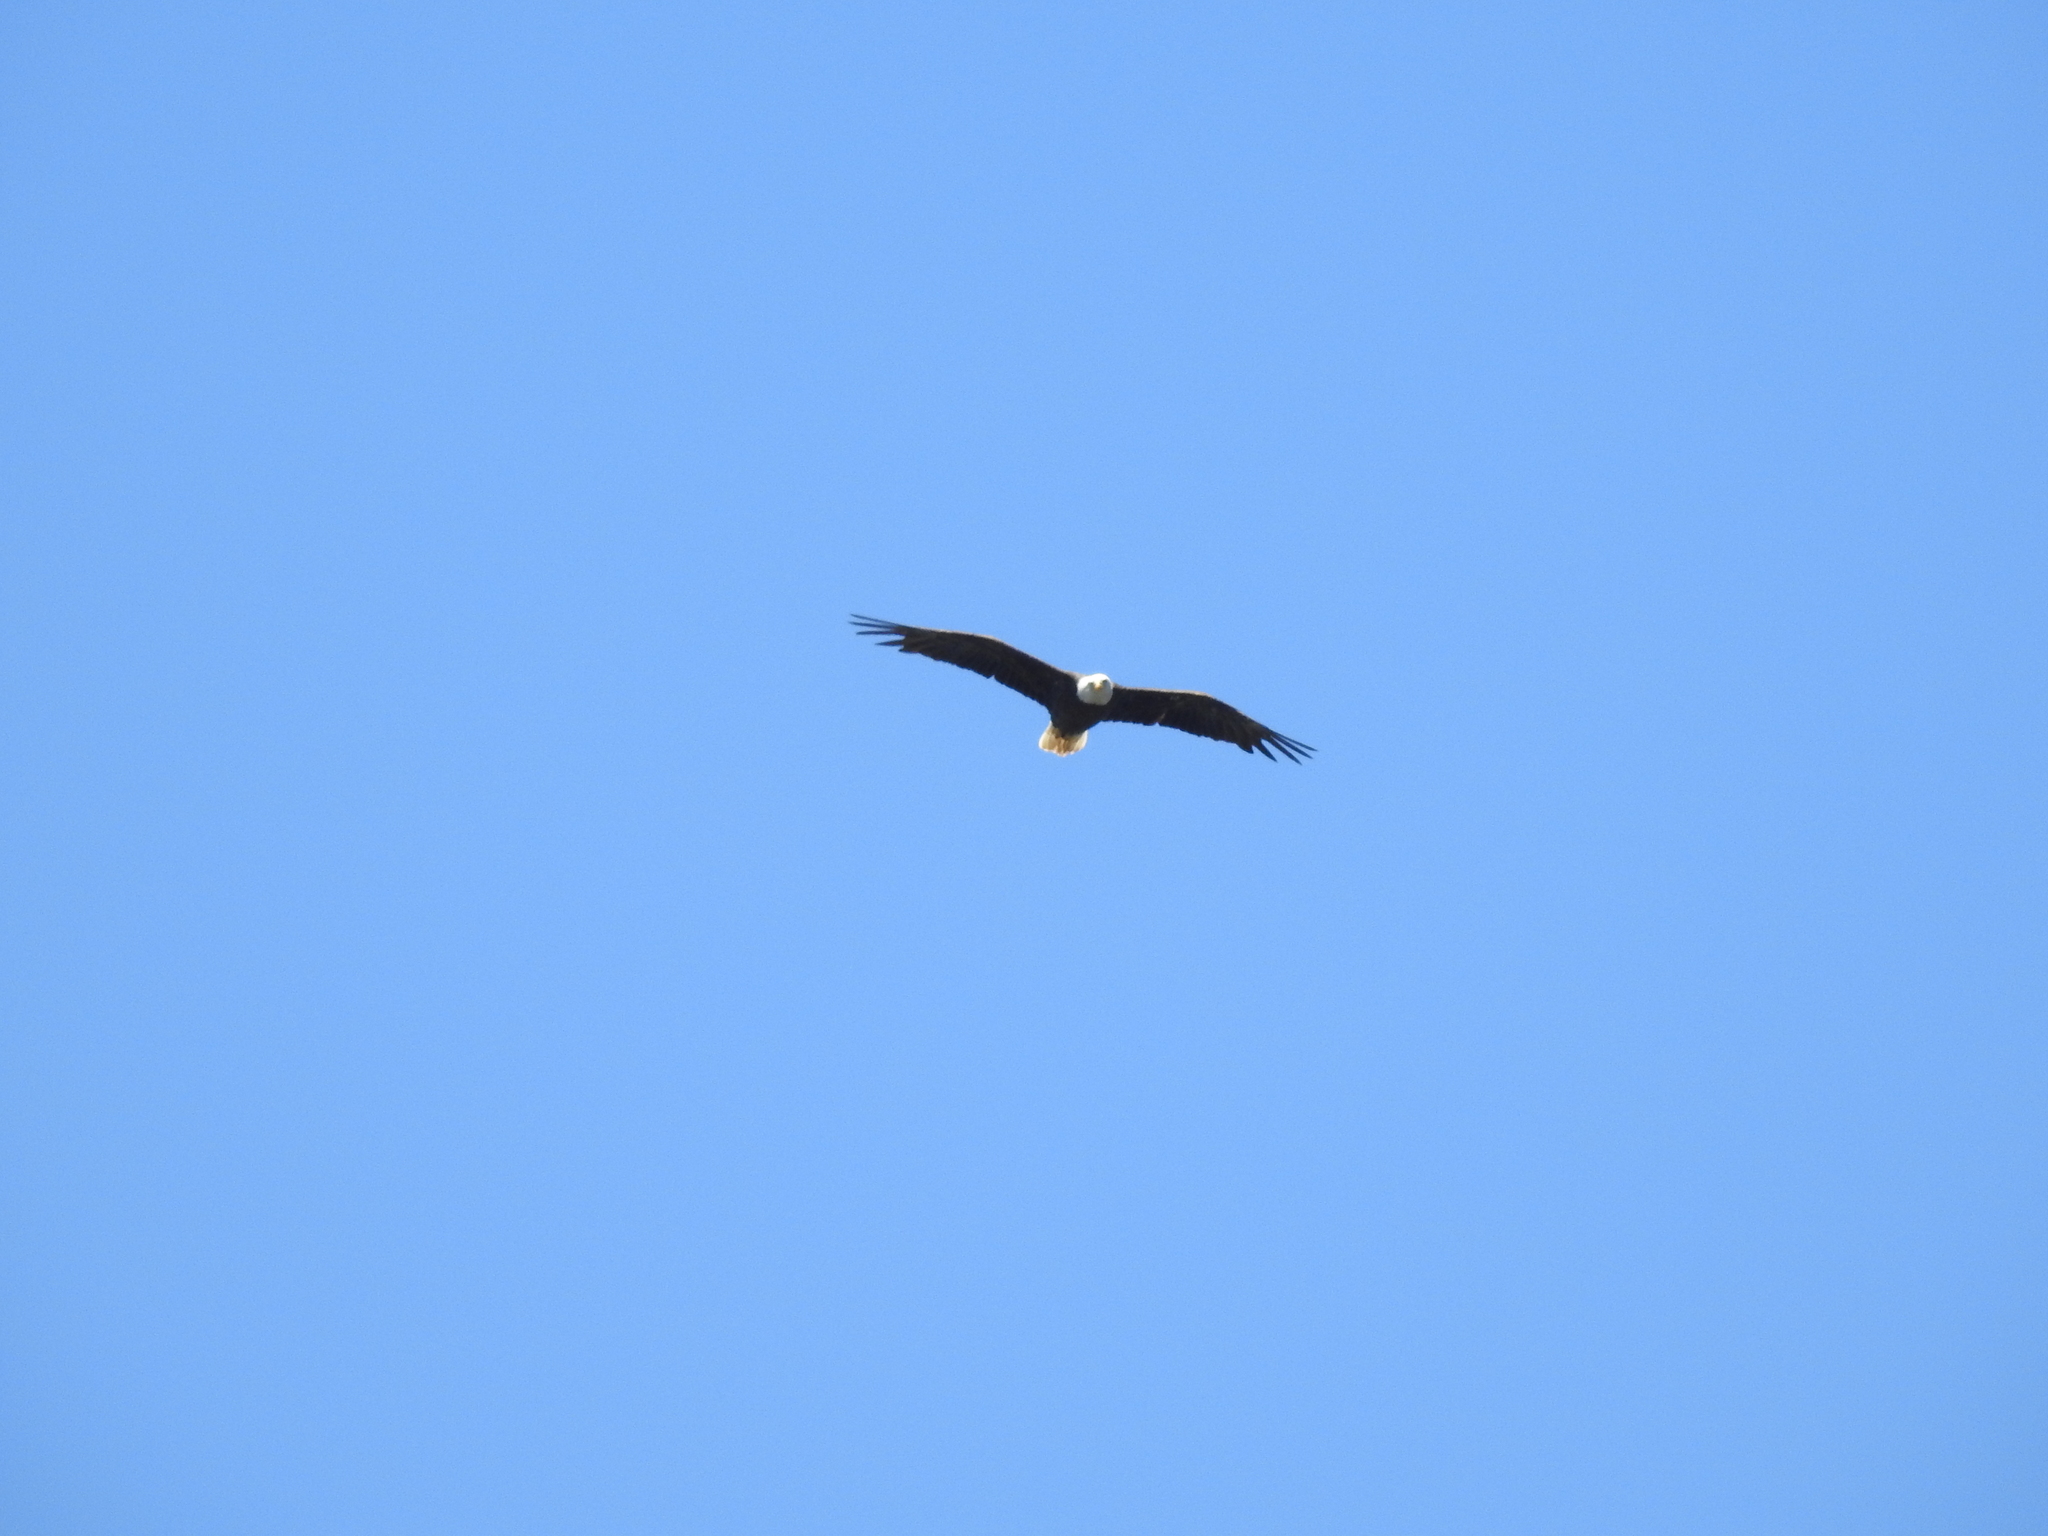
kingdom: Animalia
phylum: Chordata
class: Aves
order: Accipitriformes
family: Accipitridae
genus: Haliaeetus
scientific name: Haliaeetus leucocephalus
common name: Bald eagle
